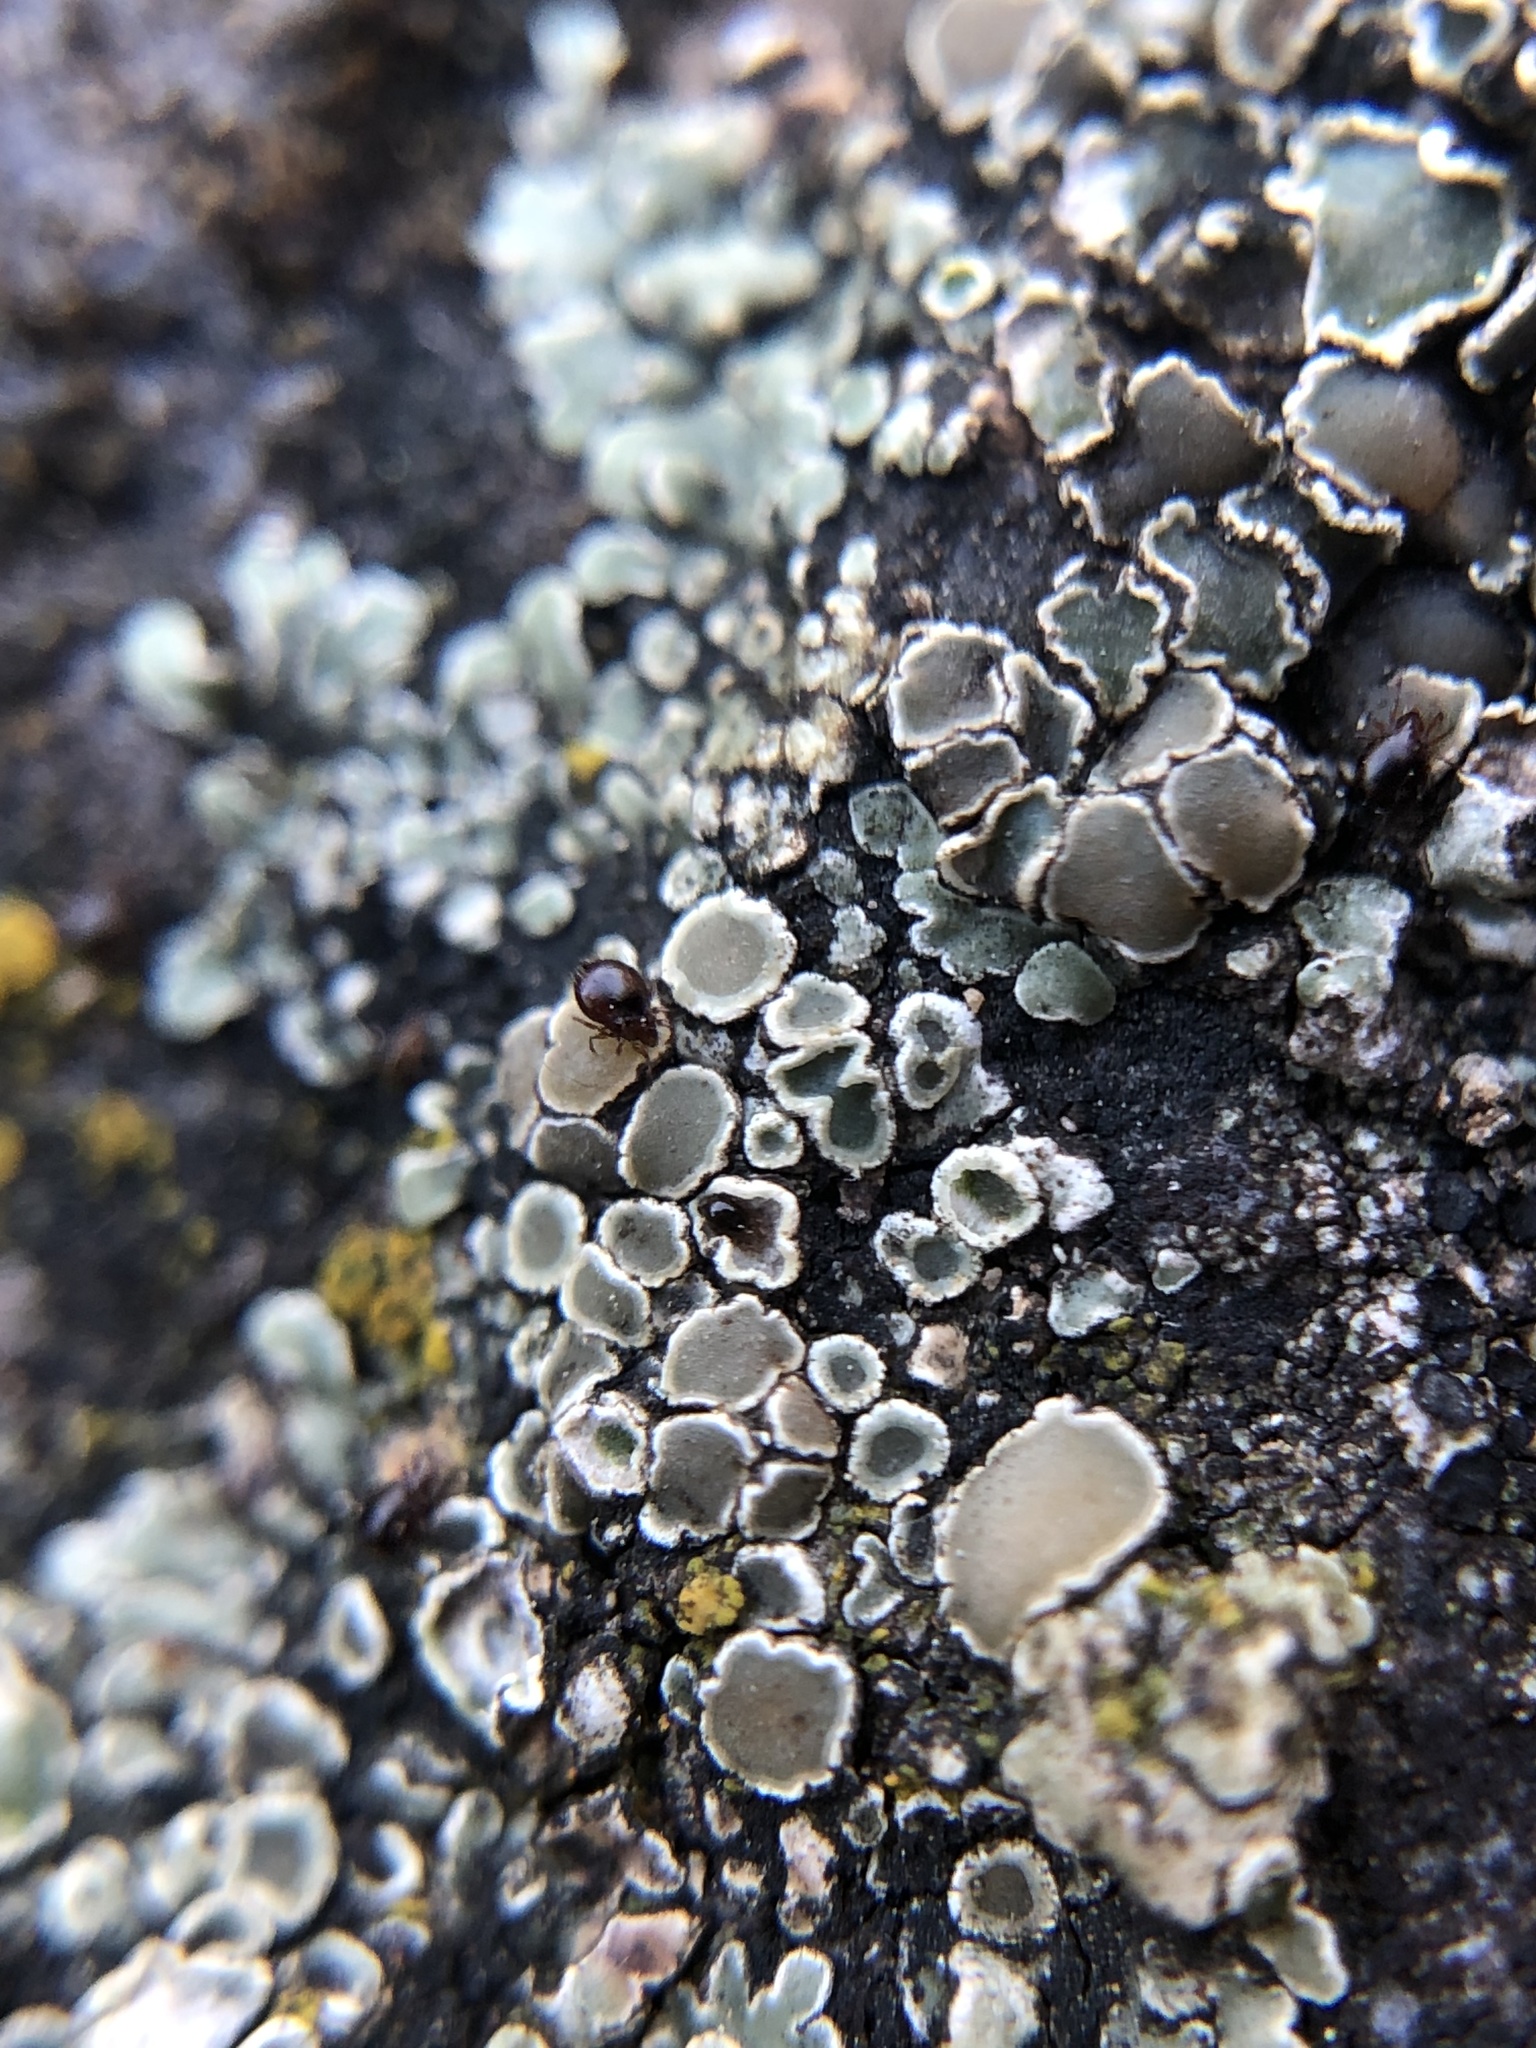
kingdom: Fungi
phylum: Ascomycota
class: Lecanoromycetes
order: Lecanorales
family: Lecanoraceae
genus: Protoparmeliopsis
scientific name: Protoparmeliopsis muralis
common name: Stonewall rim lichen
